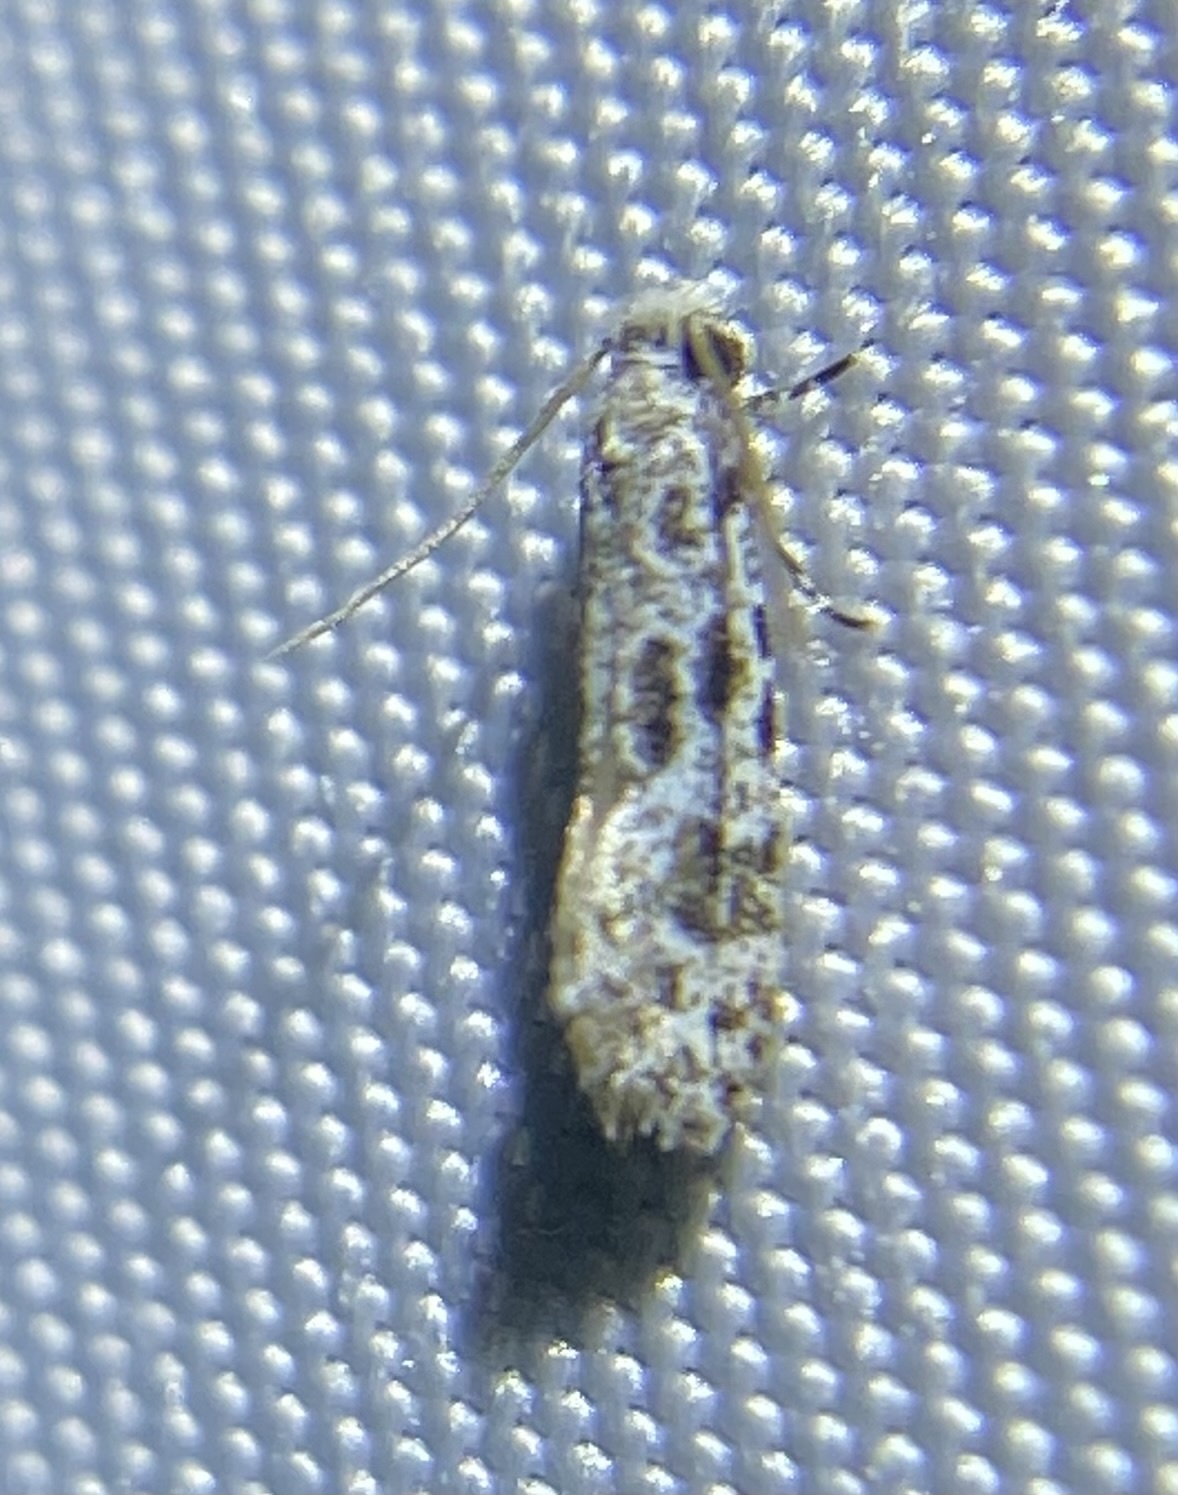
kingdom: Animalia
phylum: Arthropoda
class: Insecta
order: Lepidoptera
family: Meessiidae
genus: Diachorisia
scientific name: Diachorisia velatella
